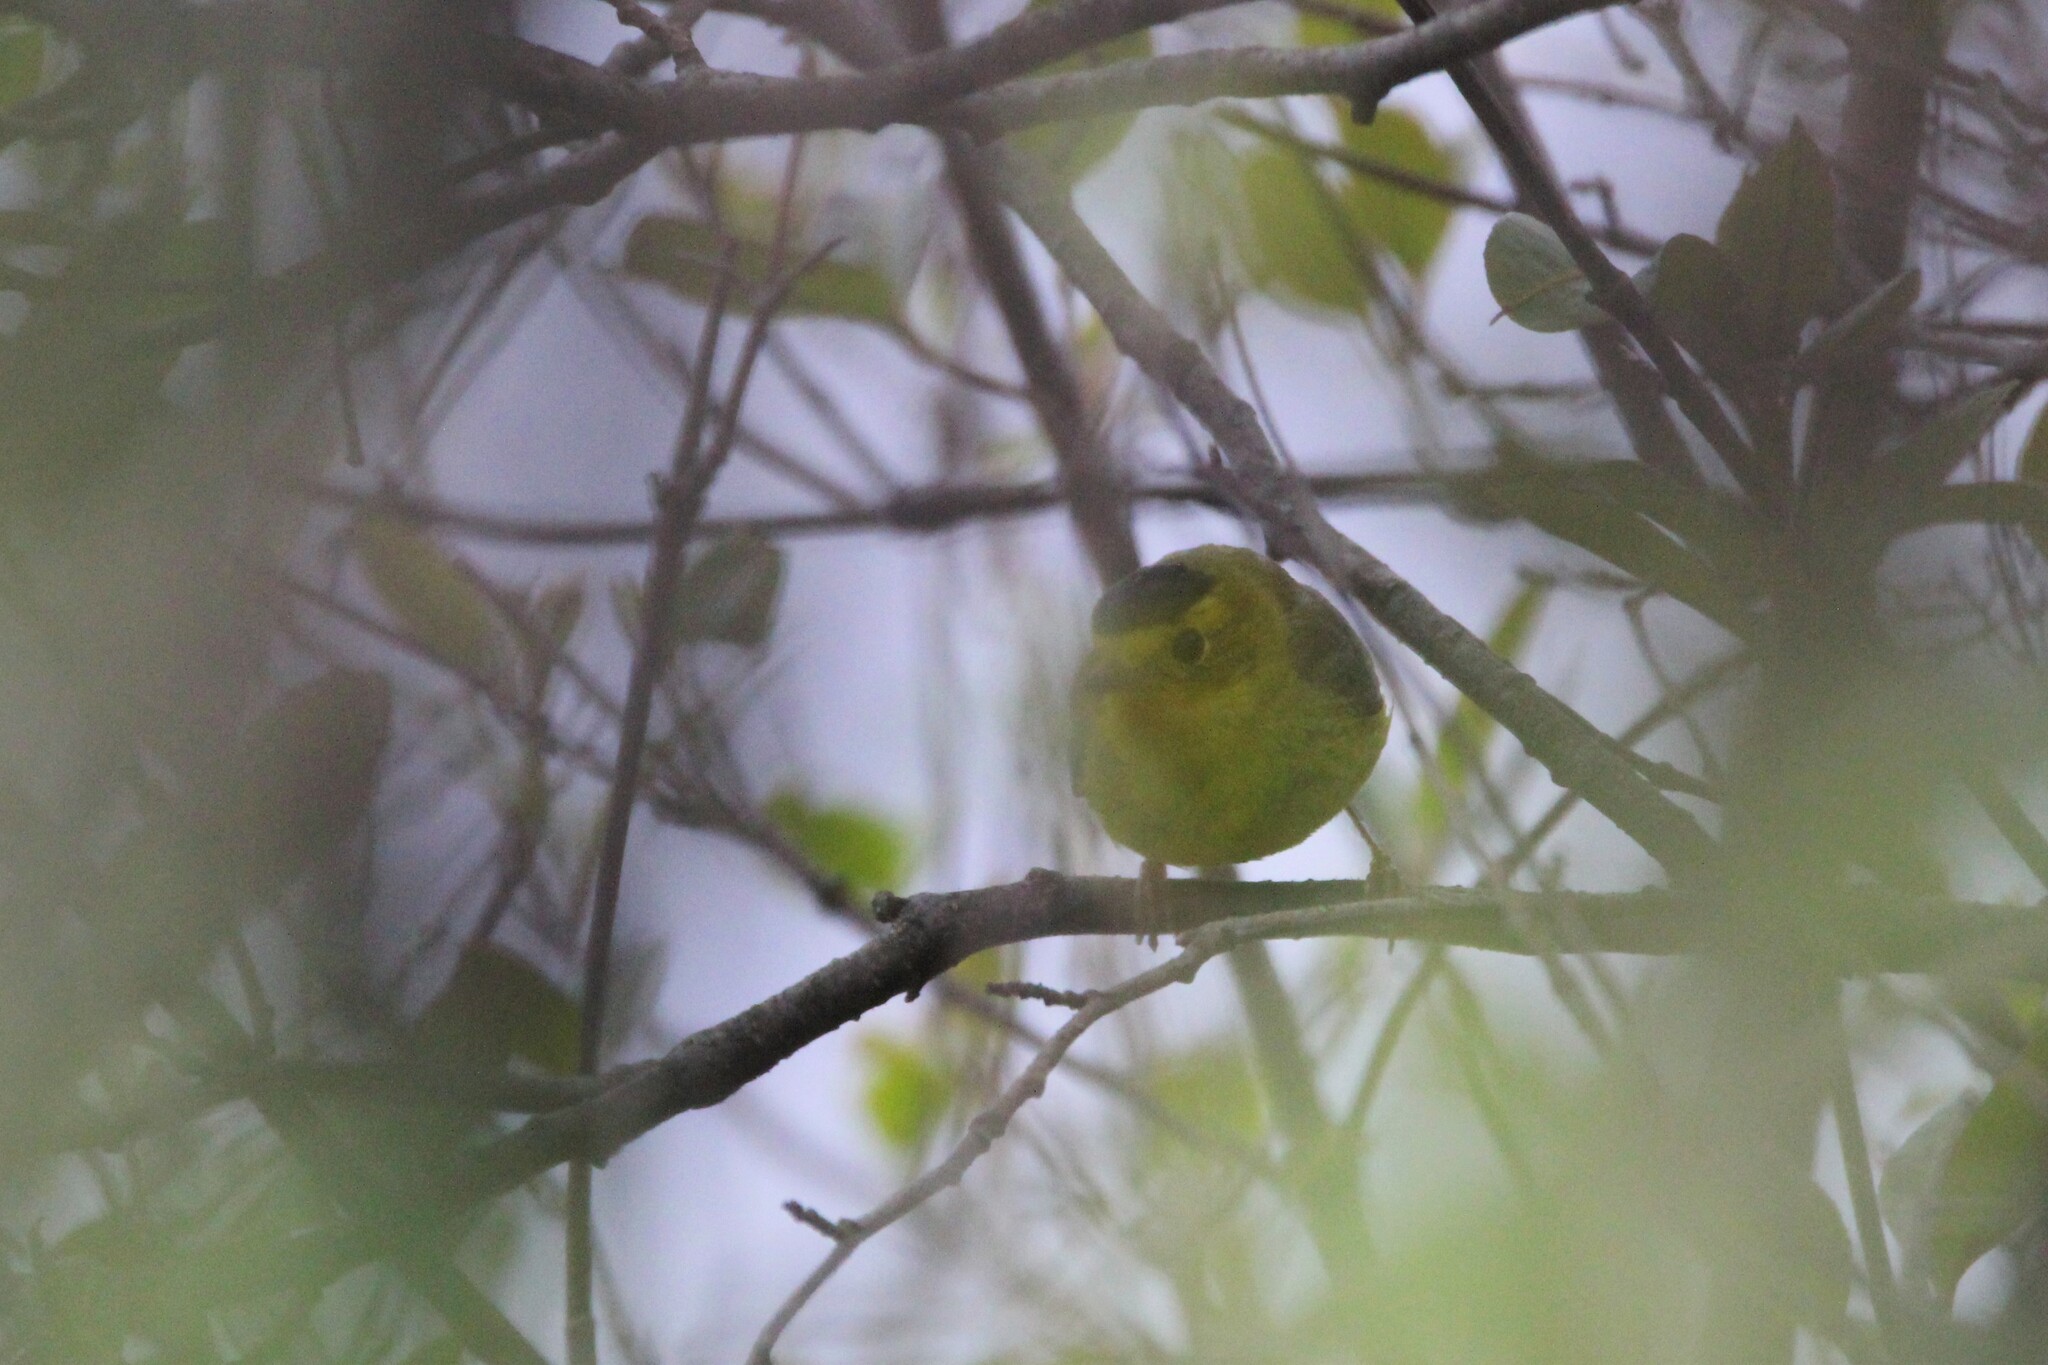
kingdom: Animalia
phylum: Chordata
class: Aves
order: Passeriformes
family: Parulidae
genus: Cardellina
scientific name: Cardellina pusilla
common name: Wilson's warbler
